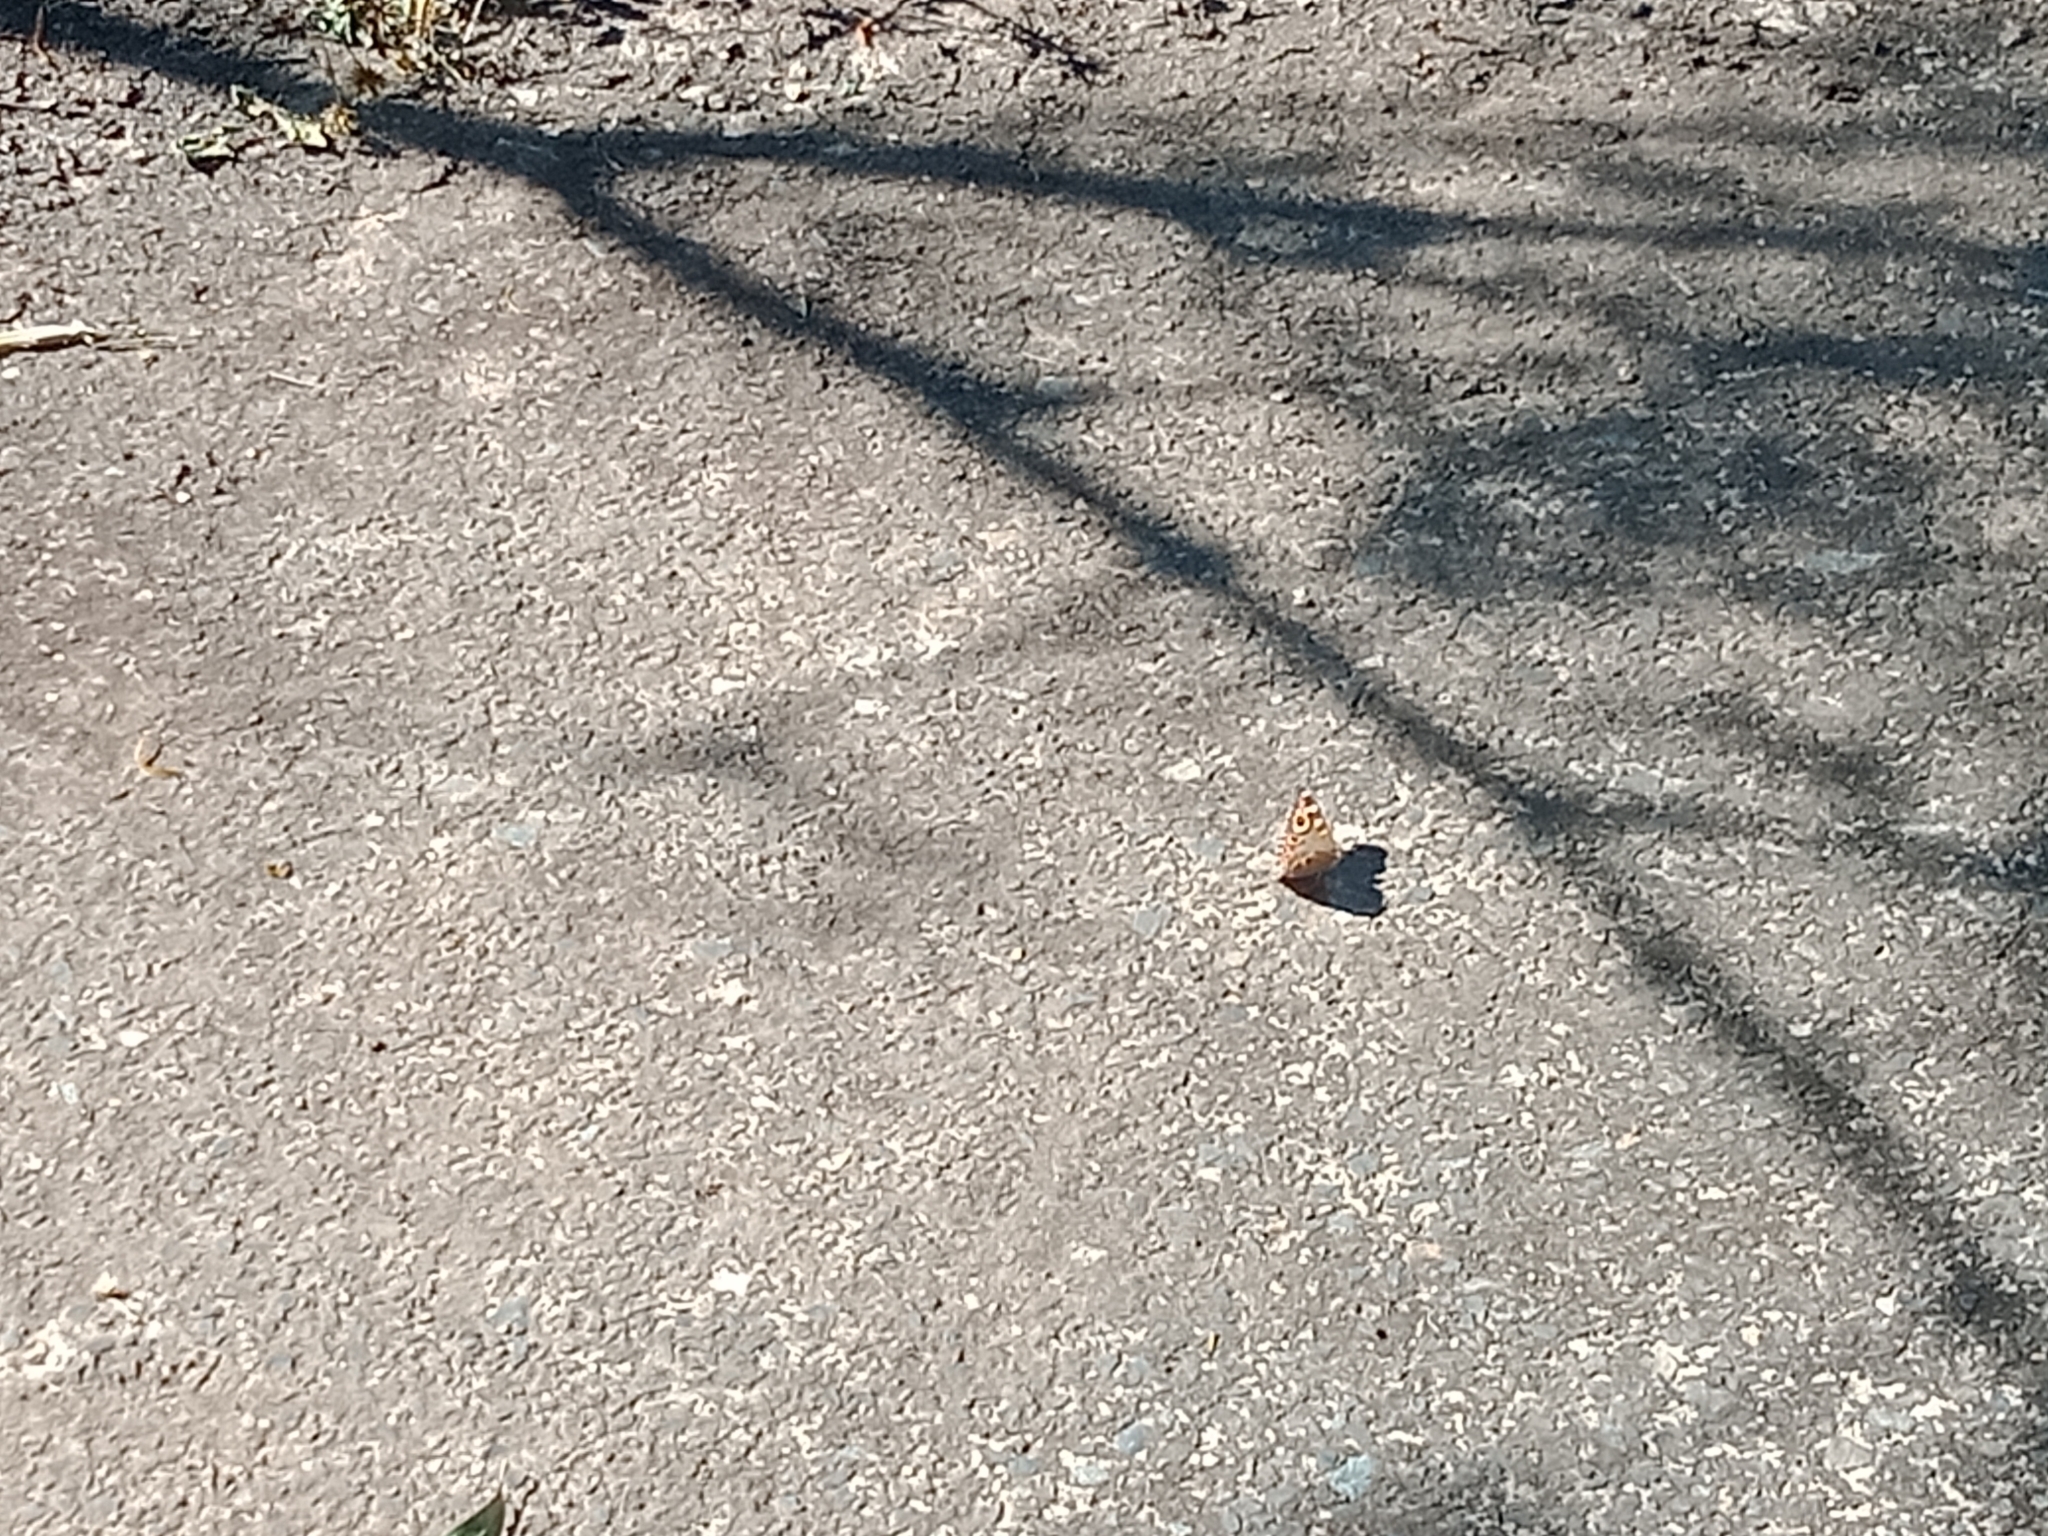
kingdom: Animalia
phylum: Arthropoda
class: Insecta
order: Lepidoptera
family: Nymphalidae
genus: Junonia
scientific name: Junonia villida
